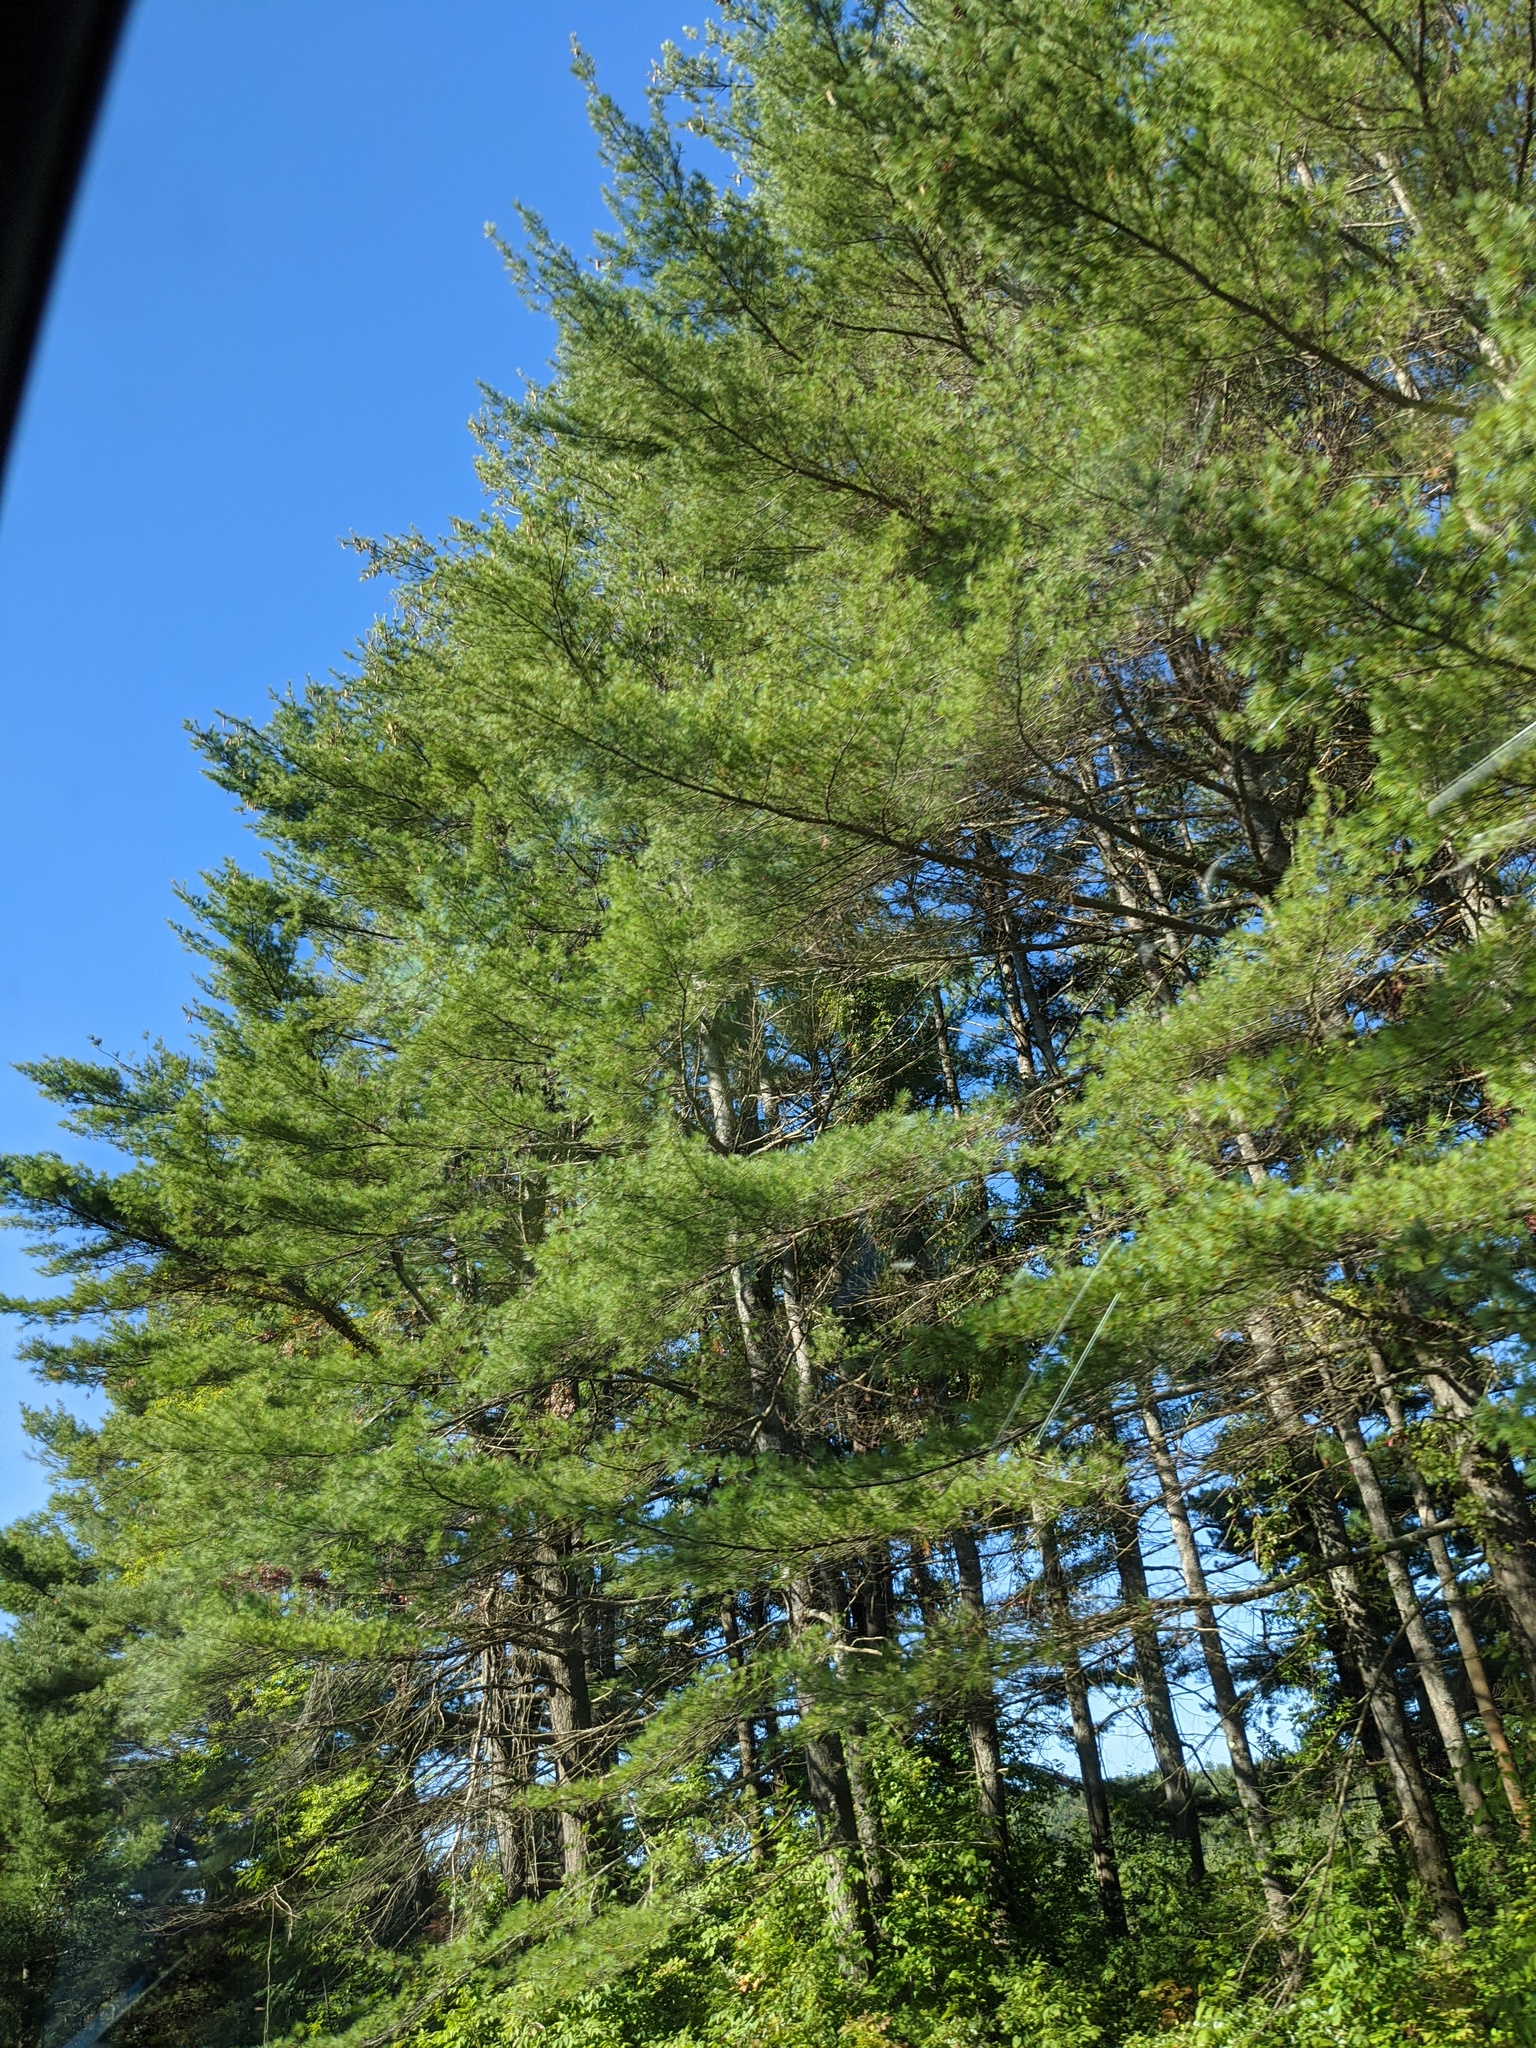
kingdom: Plantae
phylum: Tracheophyta
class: Pinopsida
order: Pinales
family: Pinaceae
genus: Pinus
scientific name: Pinus strobus
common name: Weymouth pine
